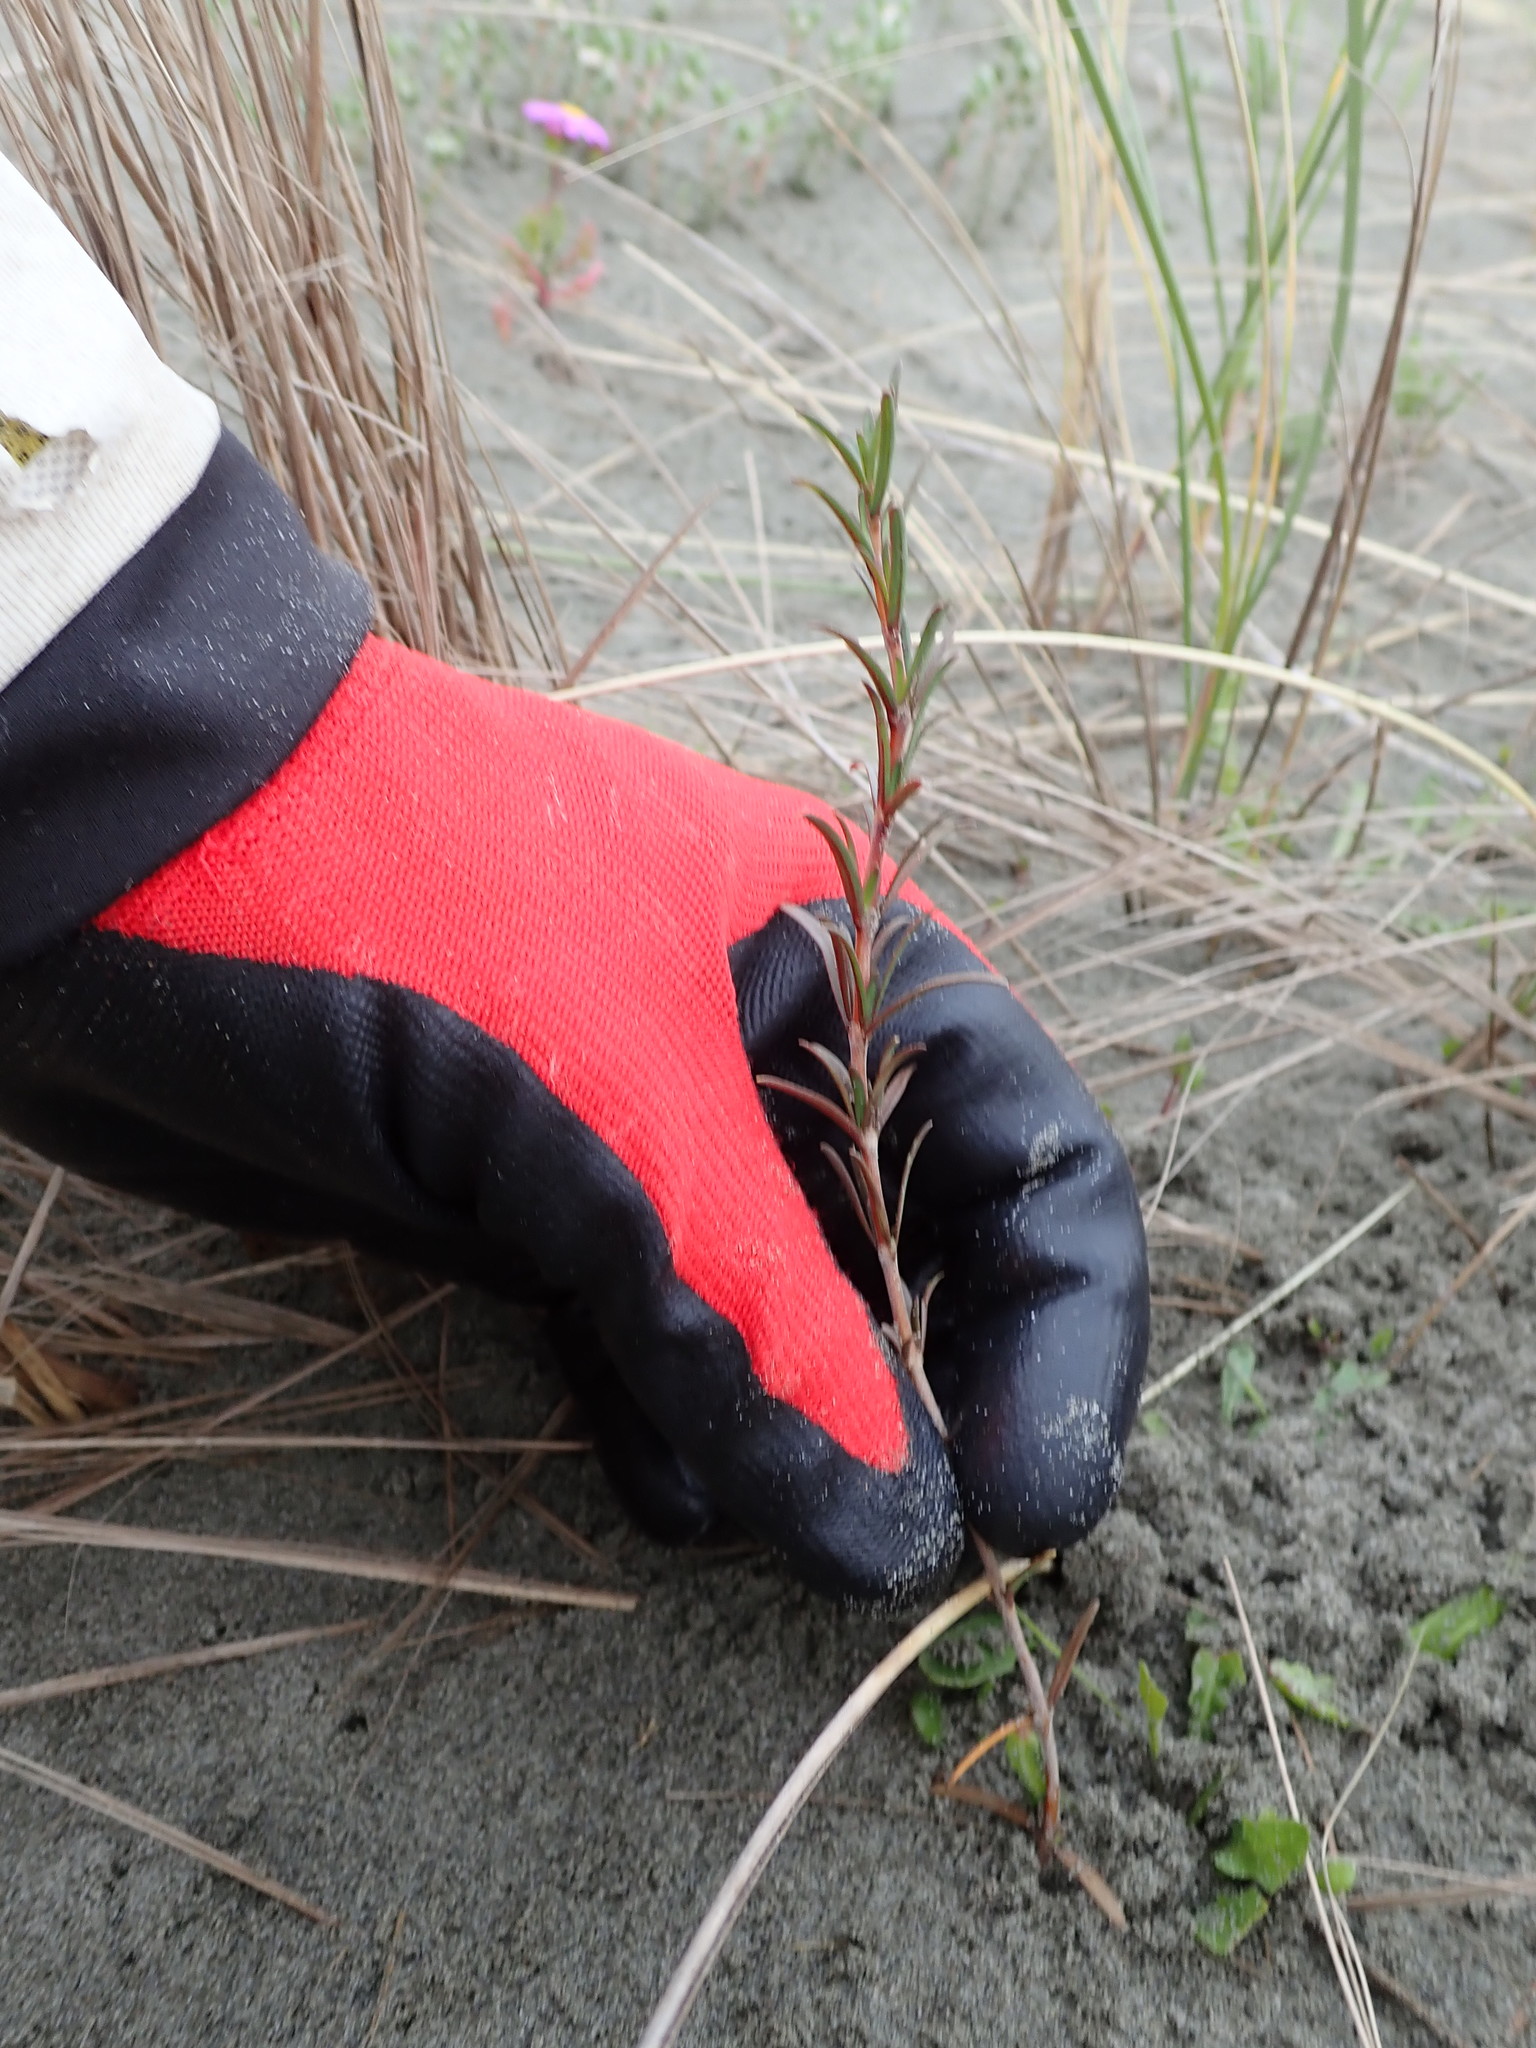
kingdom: Plantae
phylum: Tracheophyta
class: Magnoliopsida
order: Gentianales
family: Rubiaceae
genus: Coprosma
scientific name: Coprosma acerosa
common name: Sand coprosma
